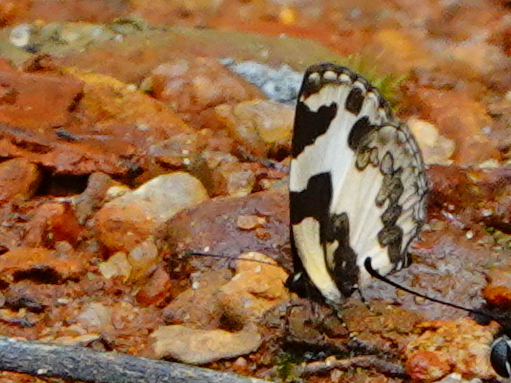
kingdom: Animalia
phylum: Arthropoda
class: Insecta
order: Lepidoptera
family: Lycaenidae
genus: Caleta
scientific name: Caleta decidia
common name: Angled pierrot
